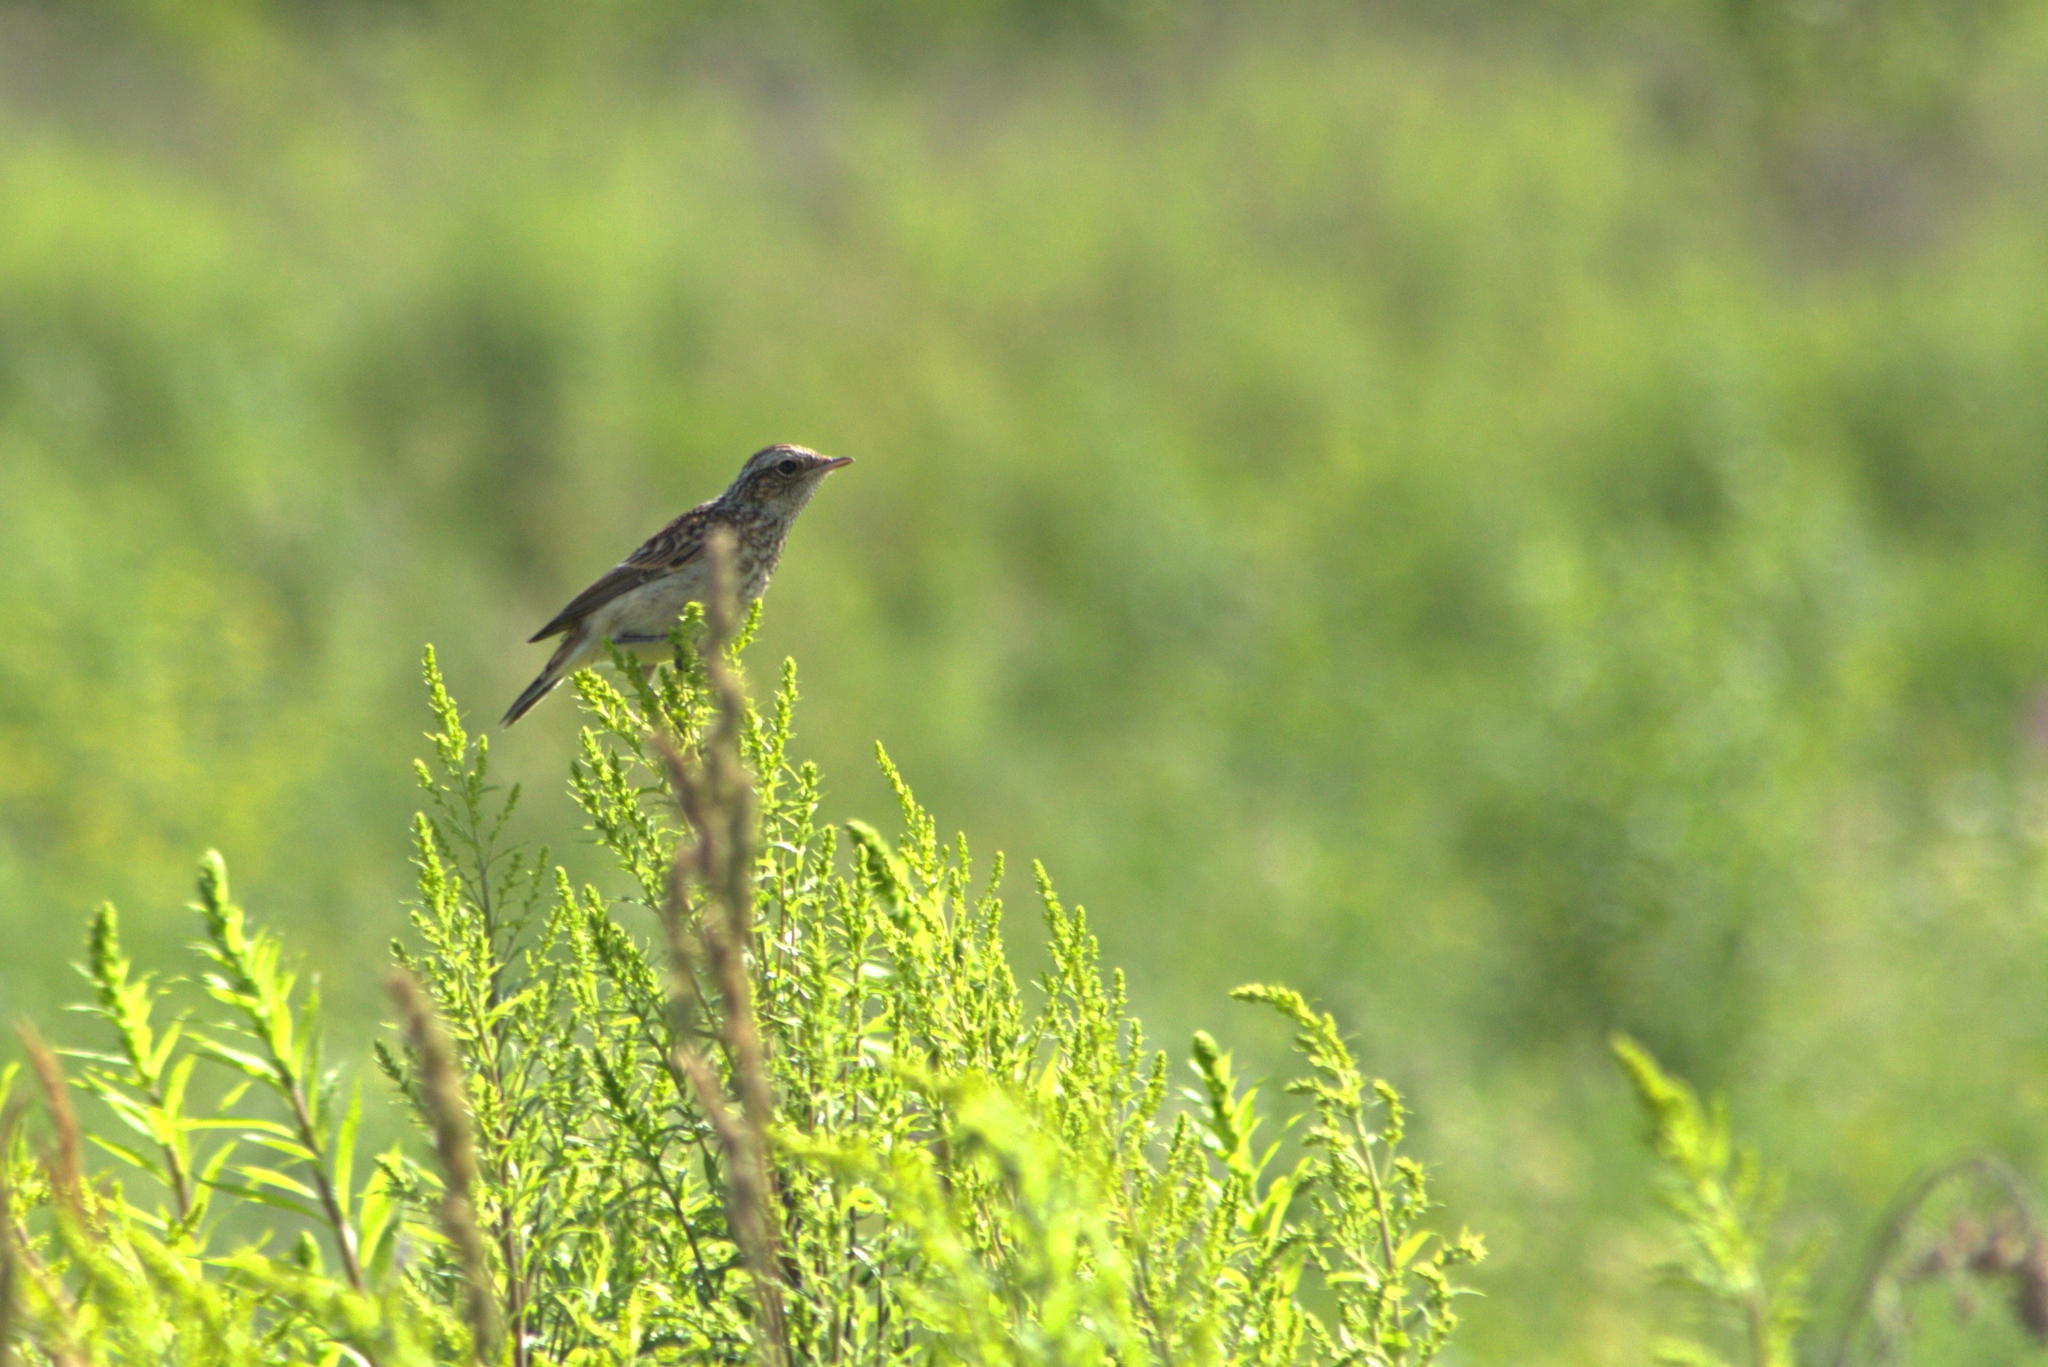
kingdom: Animalia
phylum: Chordata
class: Aves
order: Passeriformes
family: Muscicapidae
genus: Saxicola
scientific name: Saxicola rubetra
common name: Whinchat
